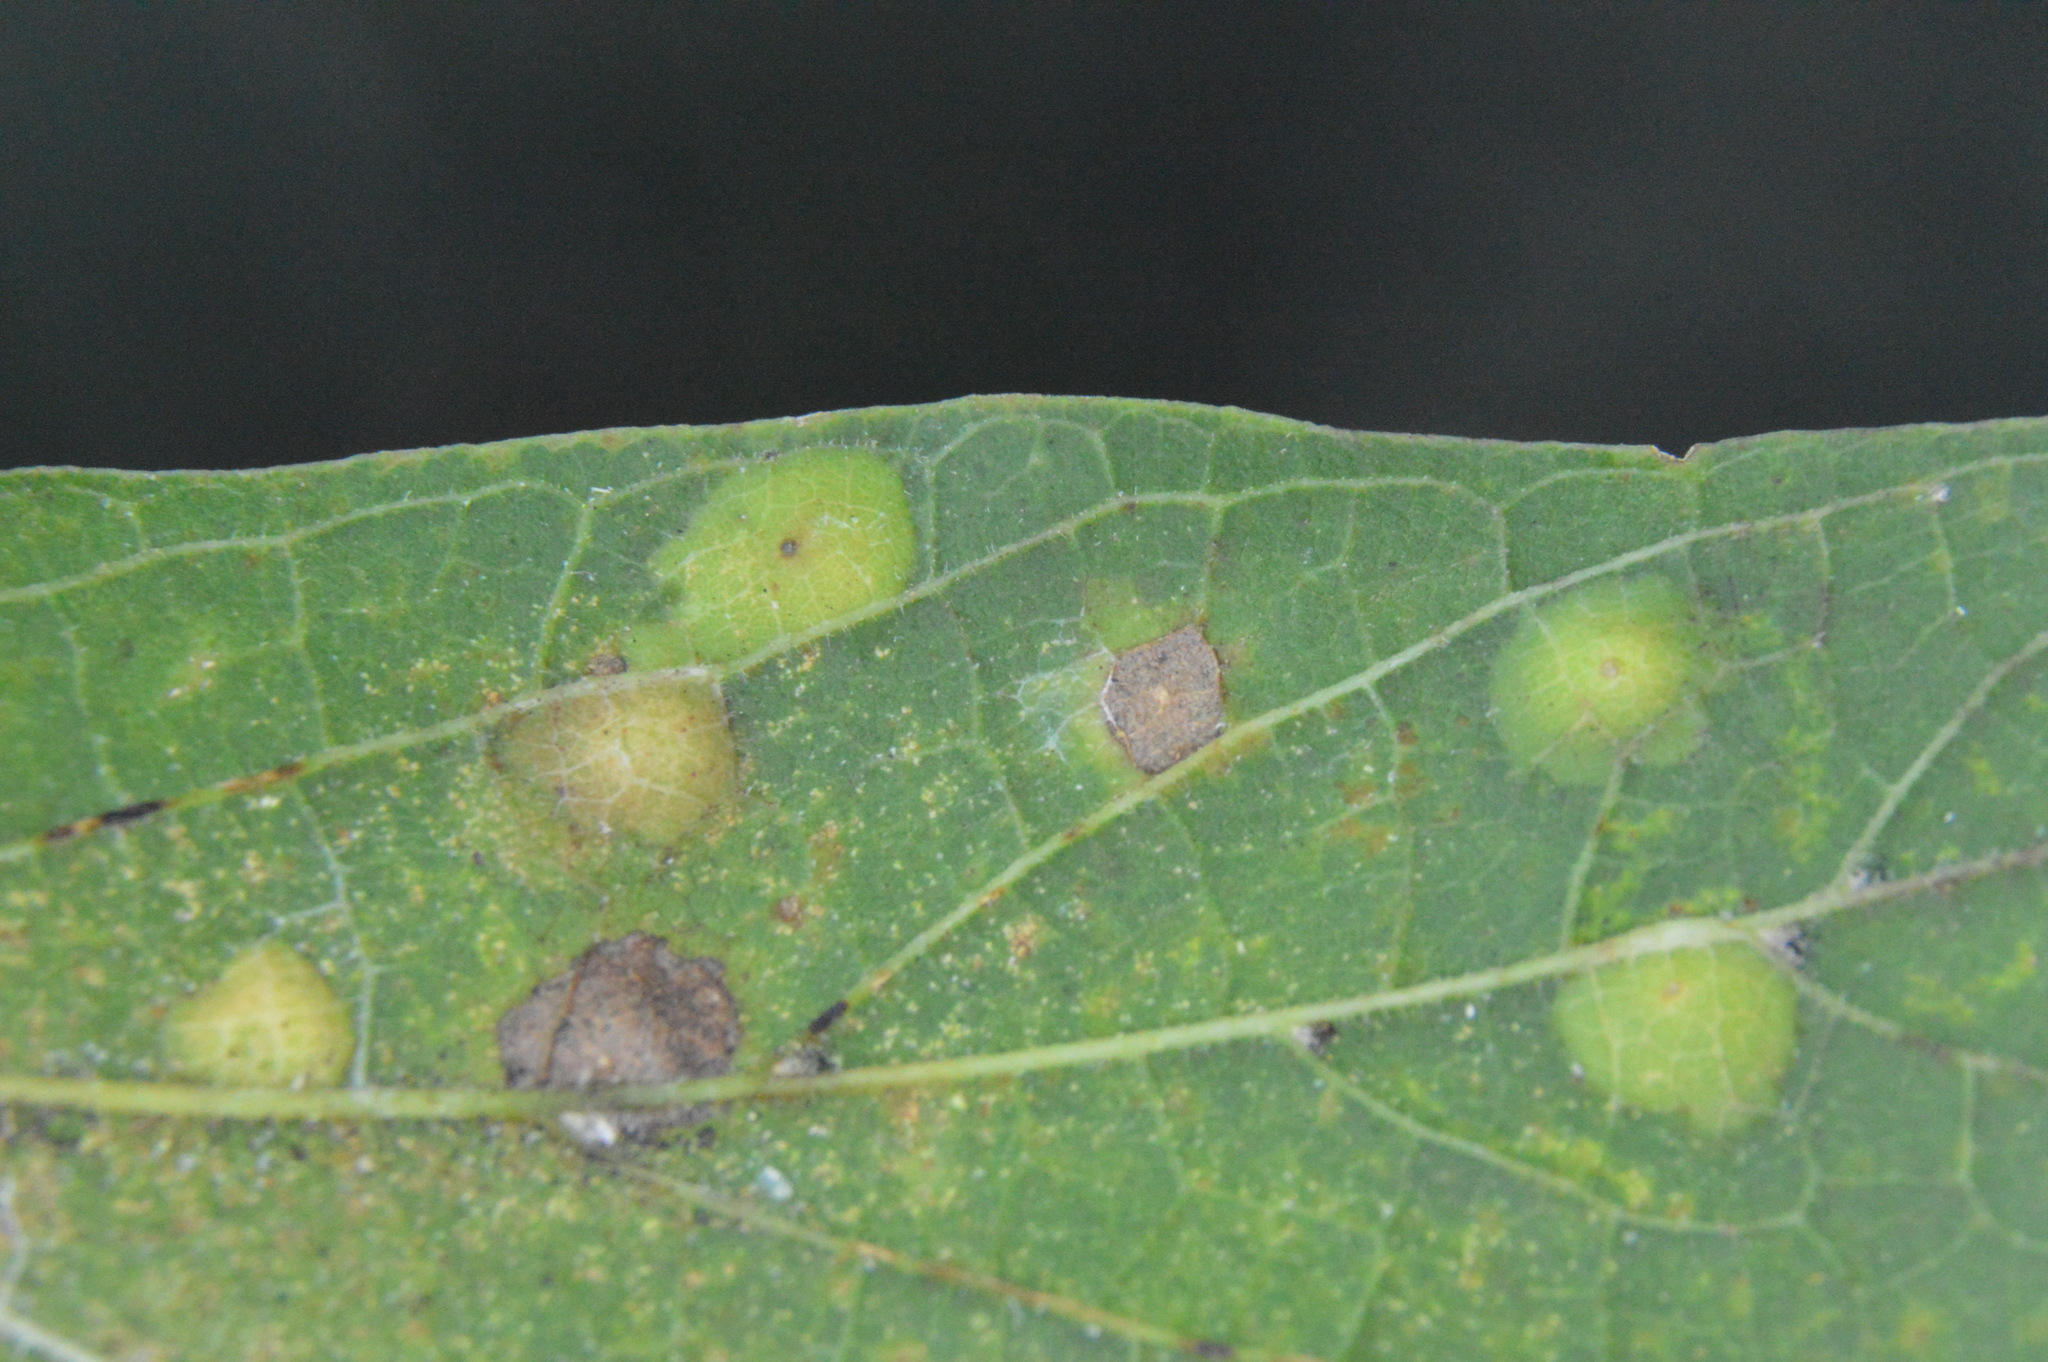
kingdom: Animalia
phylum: Arthropoda
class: Insecta
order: Hemiptera
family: Aphalaridae
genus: Pachypsylla
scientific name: Pachypsylla celtidisvesicula
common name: Hackberry blister gall psyllid
